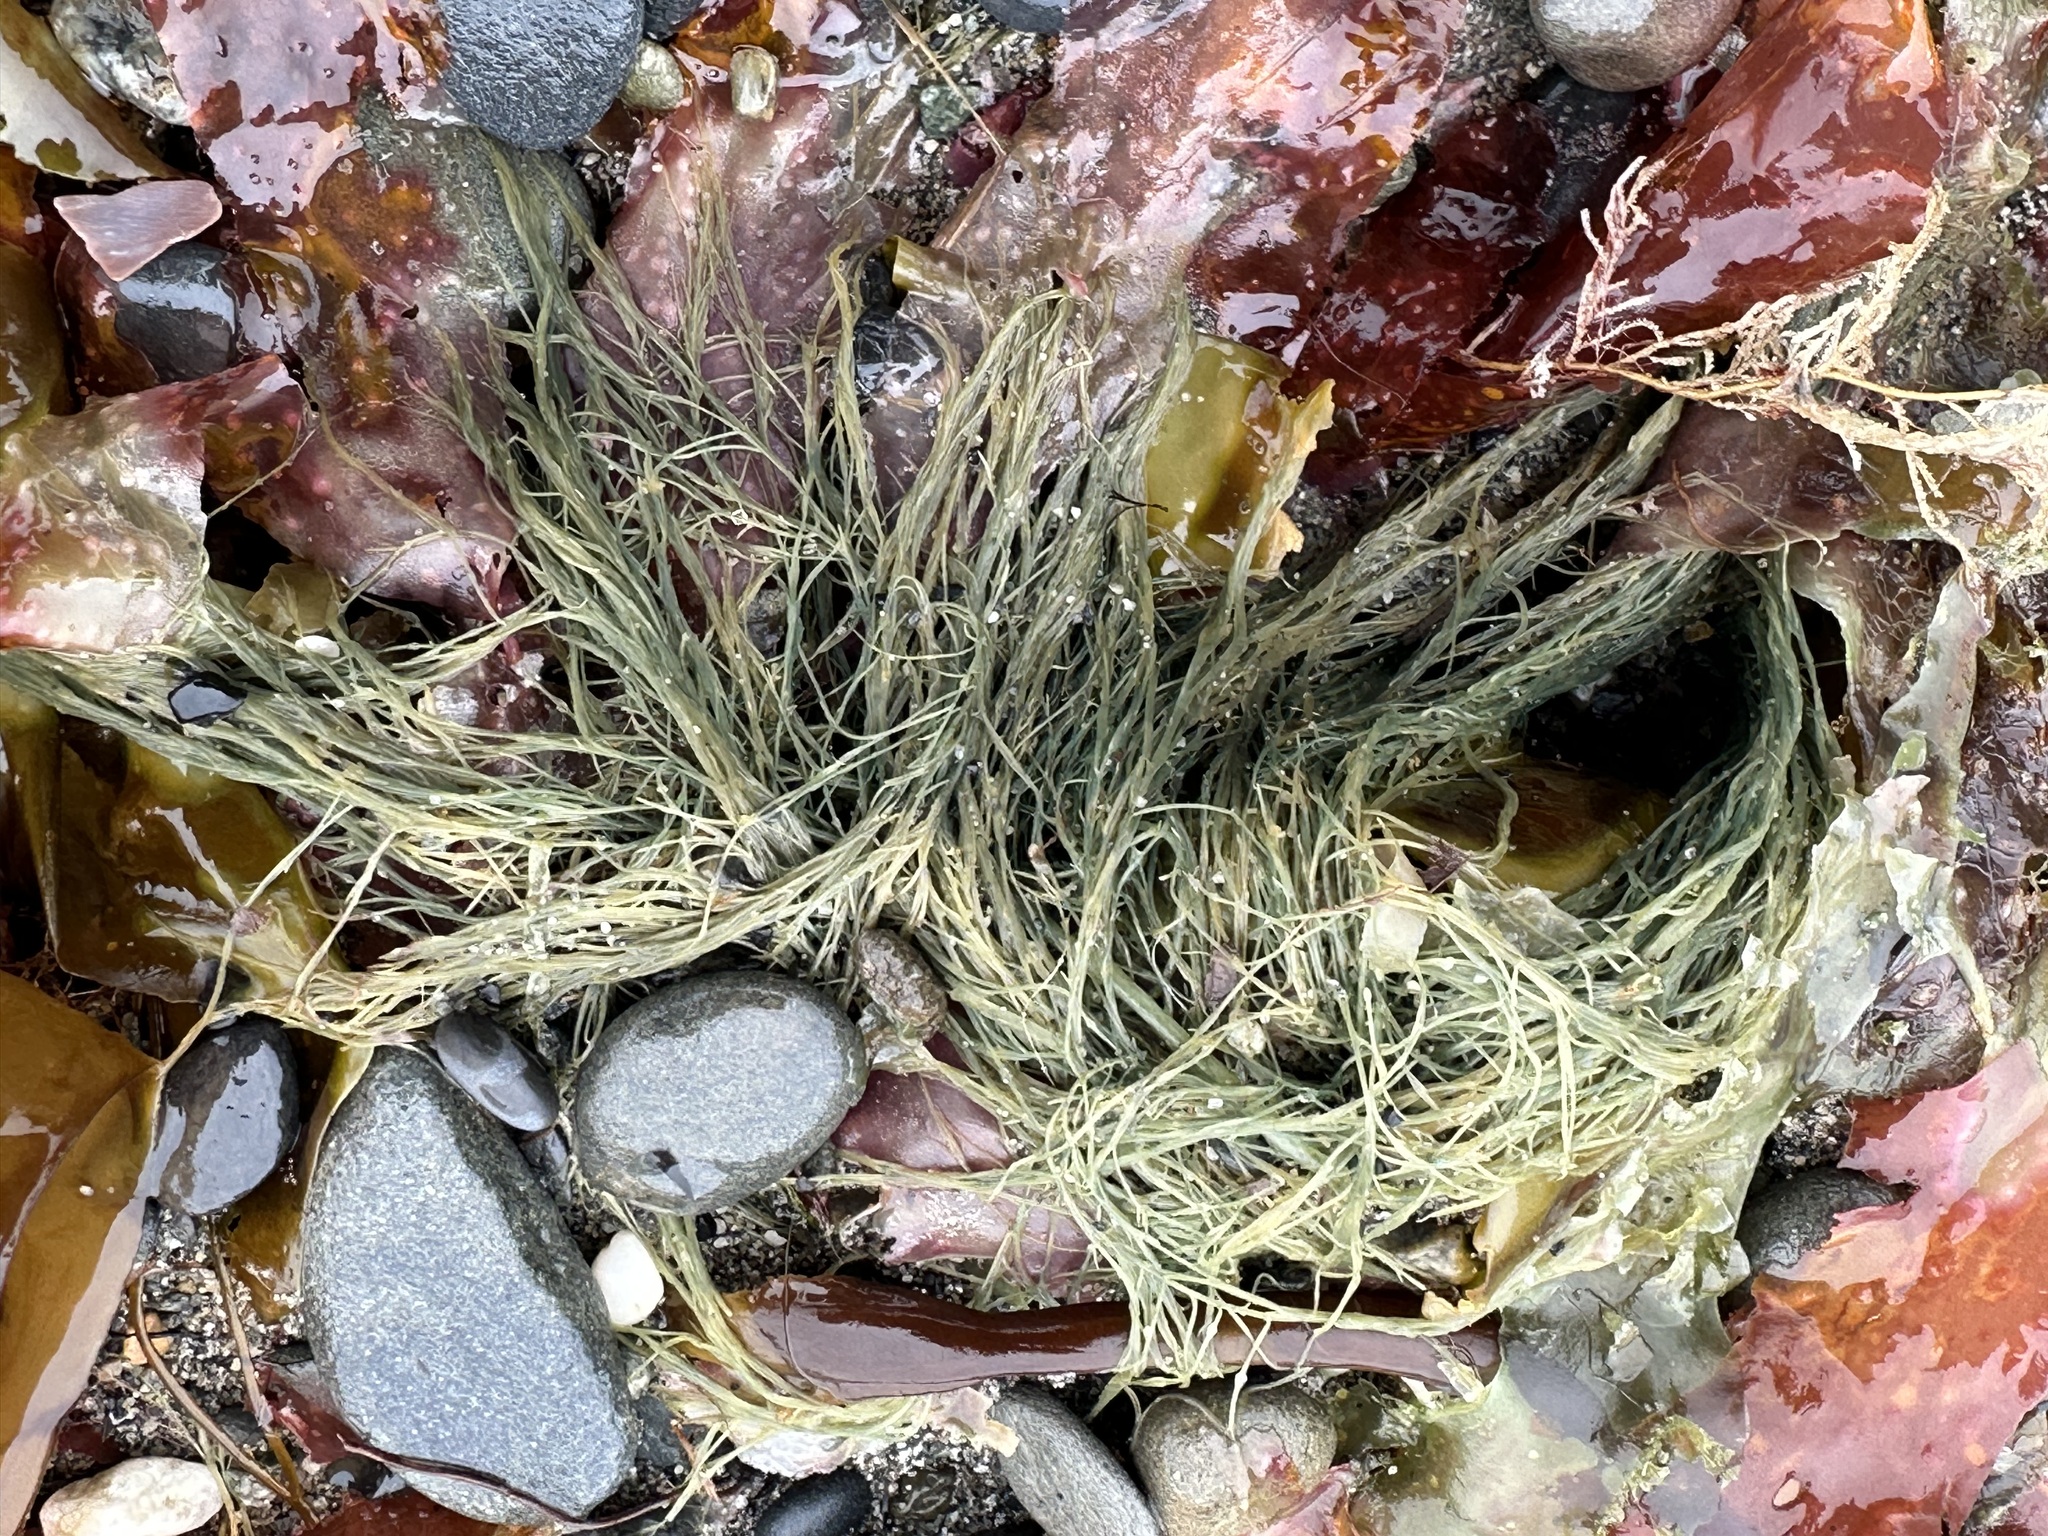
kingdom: Chromista
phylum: Ochrophyta
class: Phaeophyceae
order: Desmarestiales
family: Desmarestiaceae
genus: Desmarestia
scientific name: Desmarestia aculeata
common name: Witch's hair
